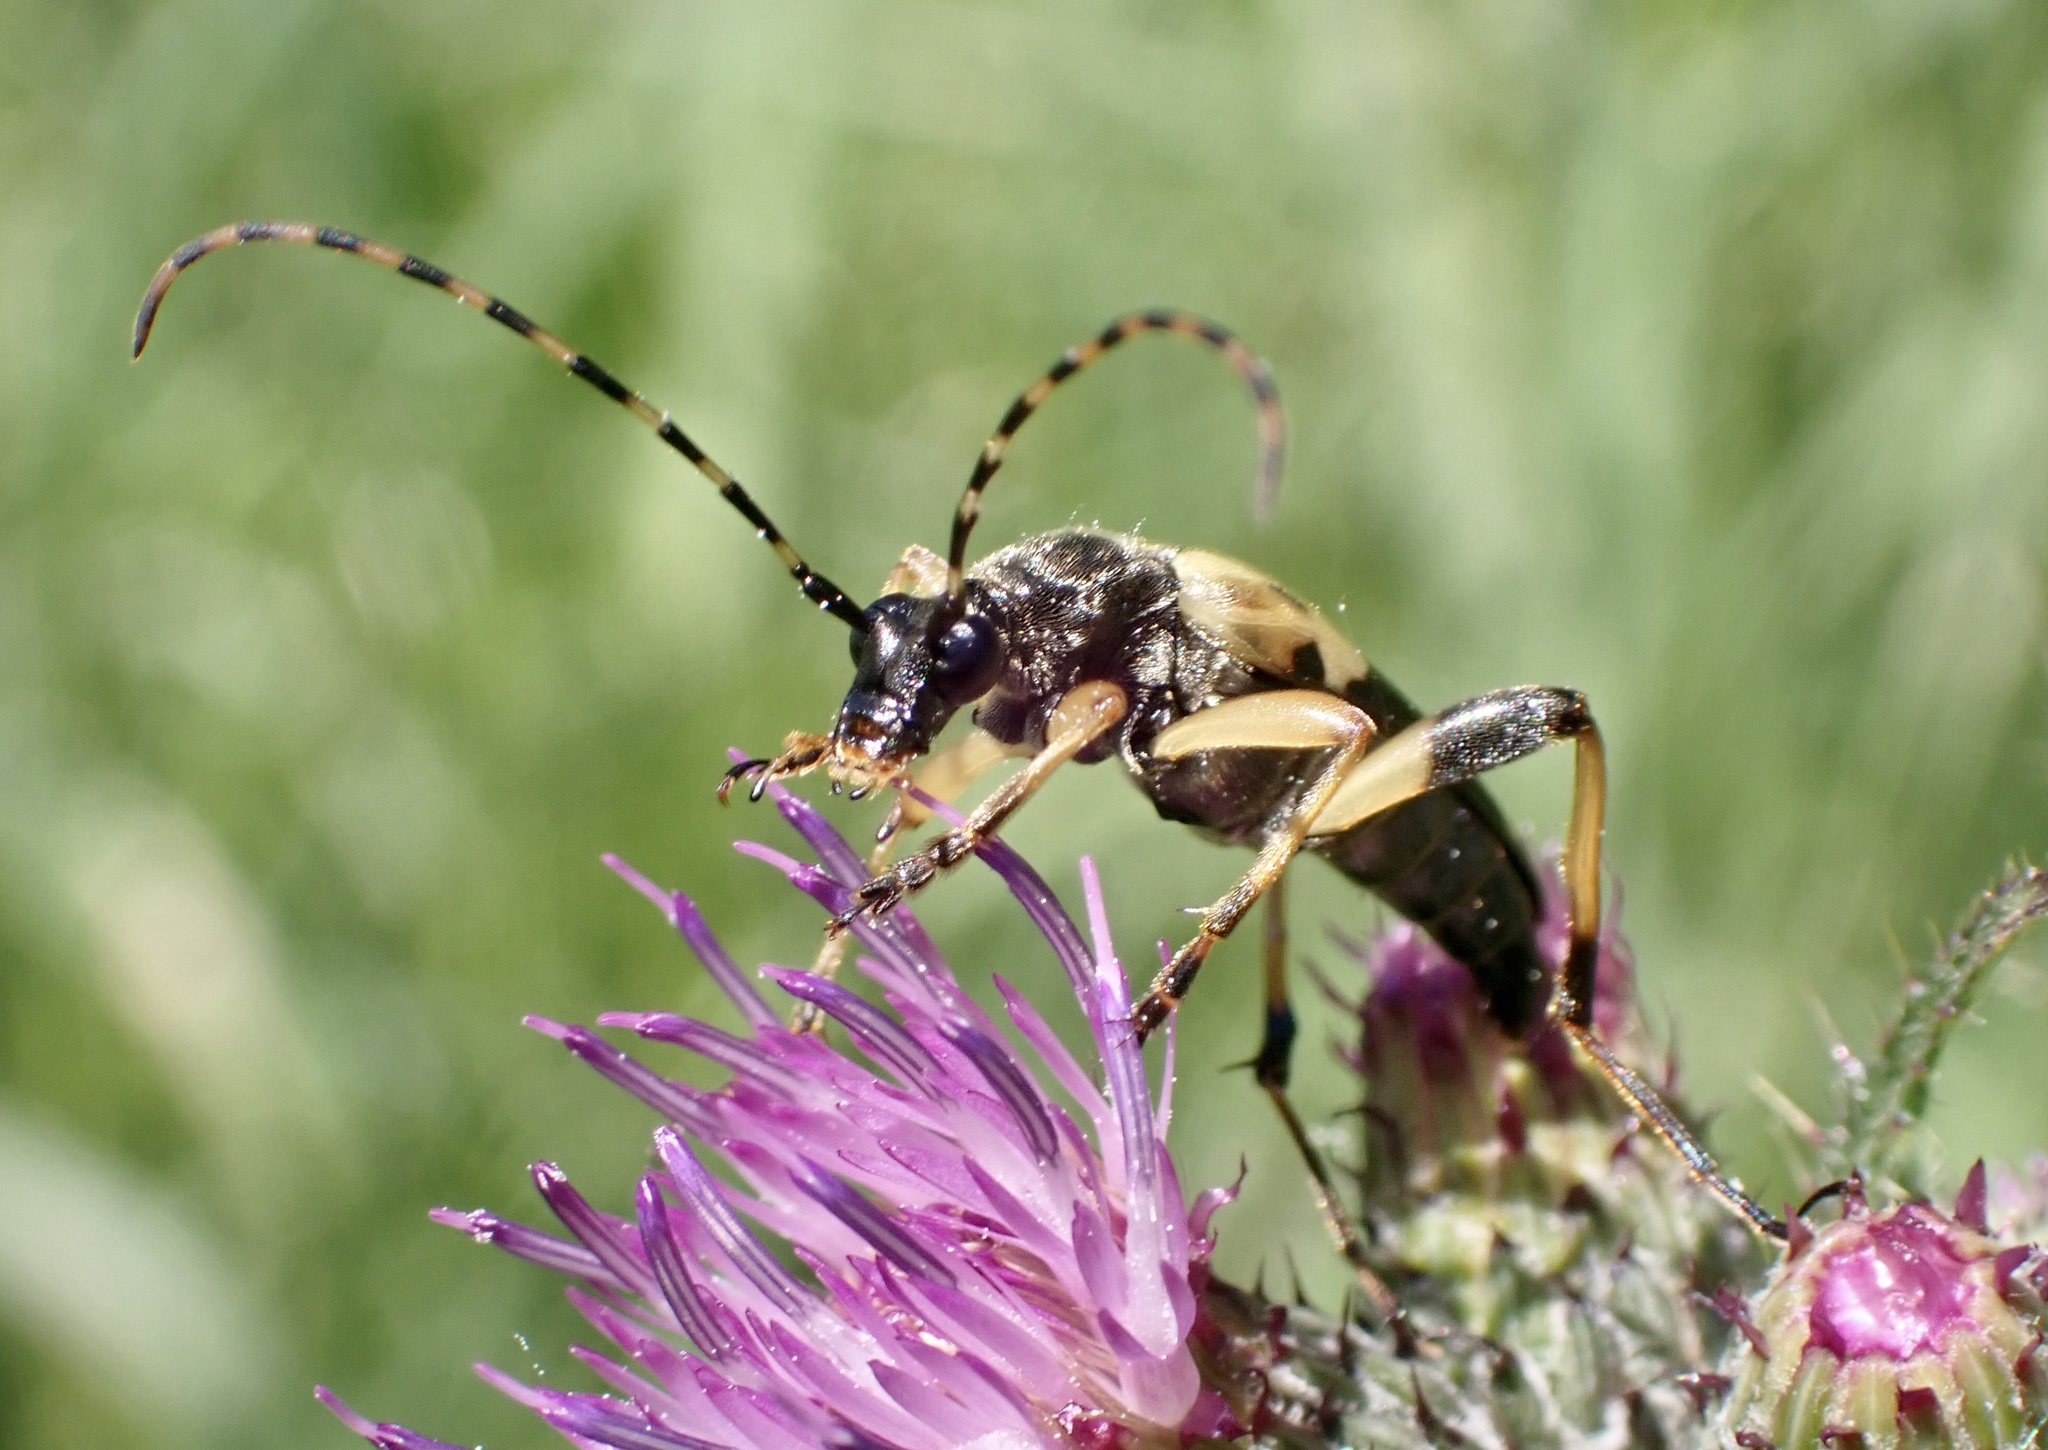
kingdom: Animalia
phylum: Arthropoda
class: Insecta
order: Coleoptera
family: Cerambycidae
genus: Rutpela
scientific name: Rutpela maculata
